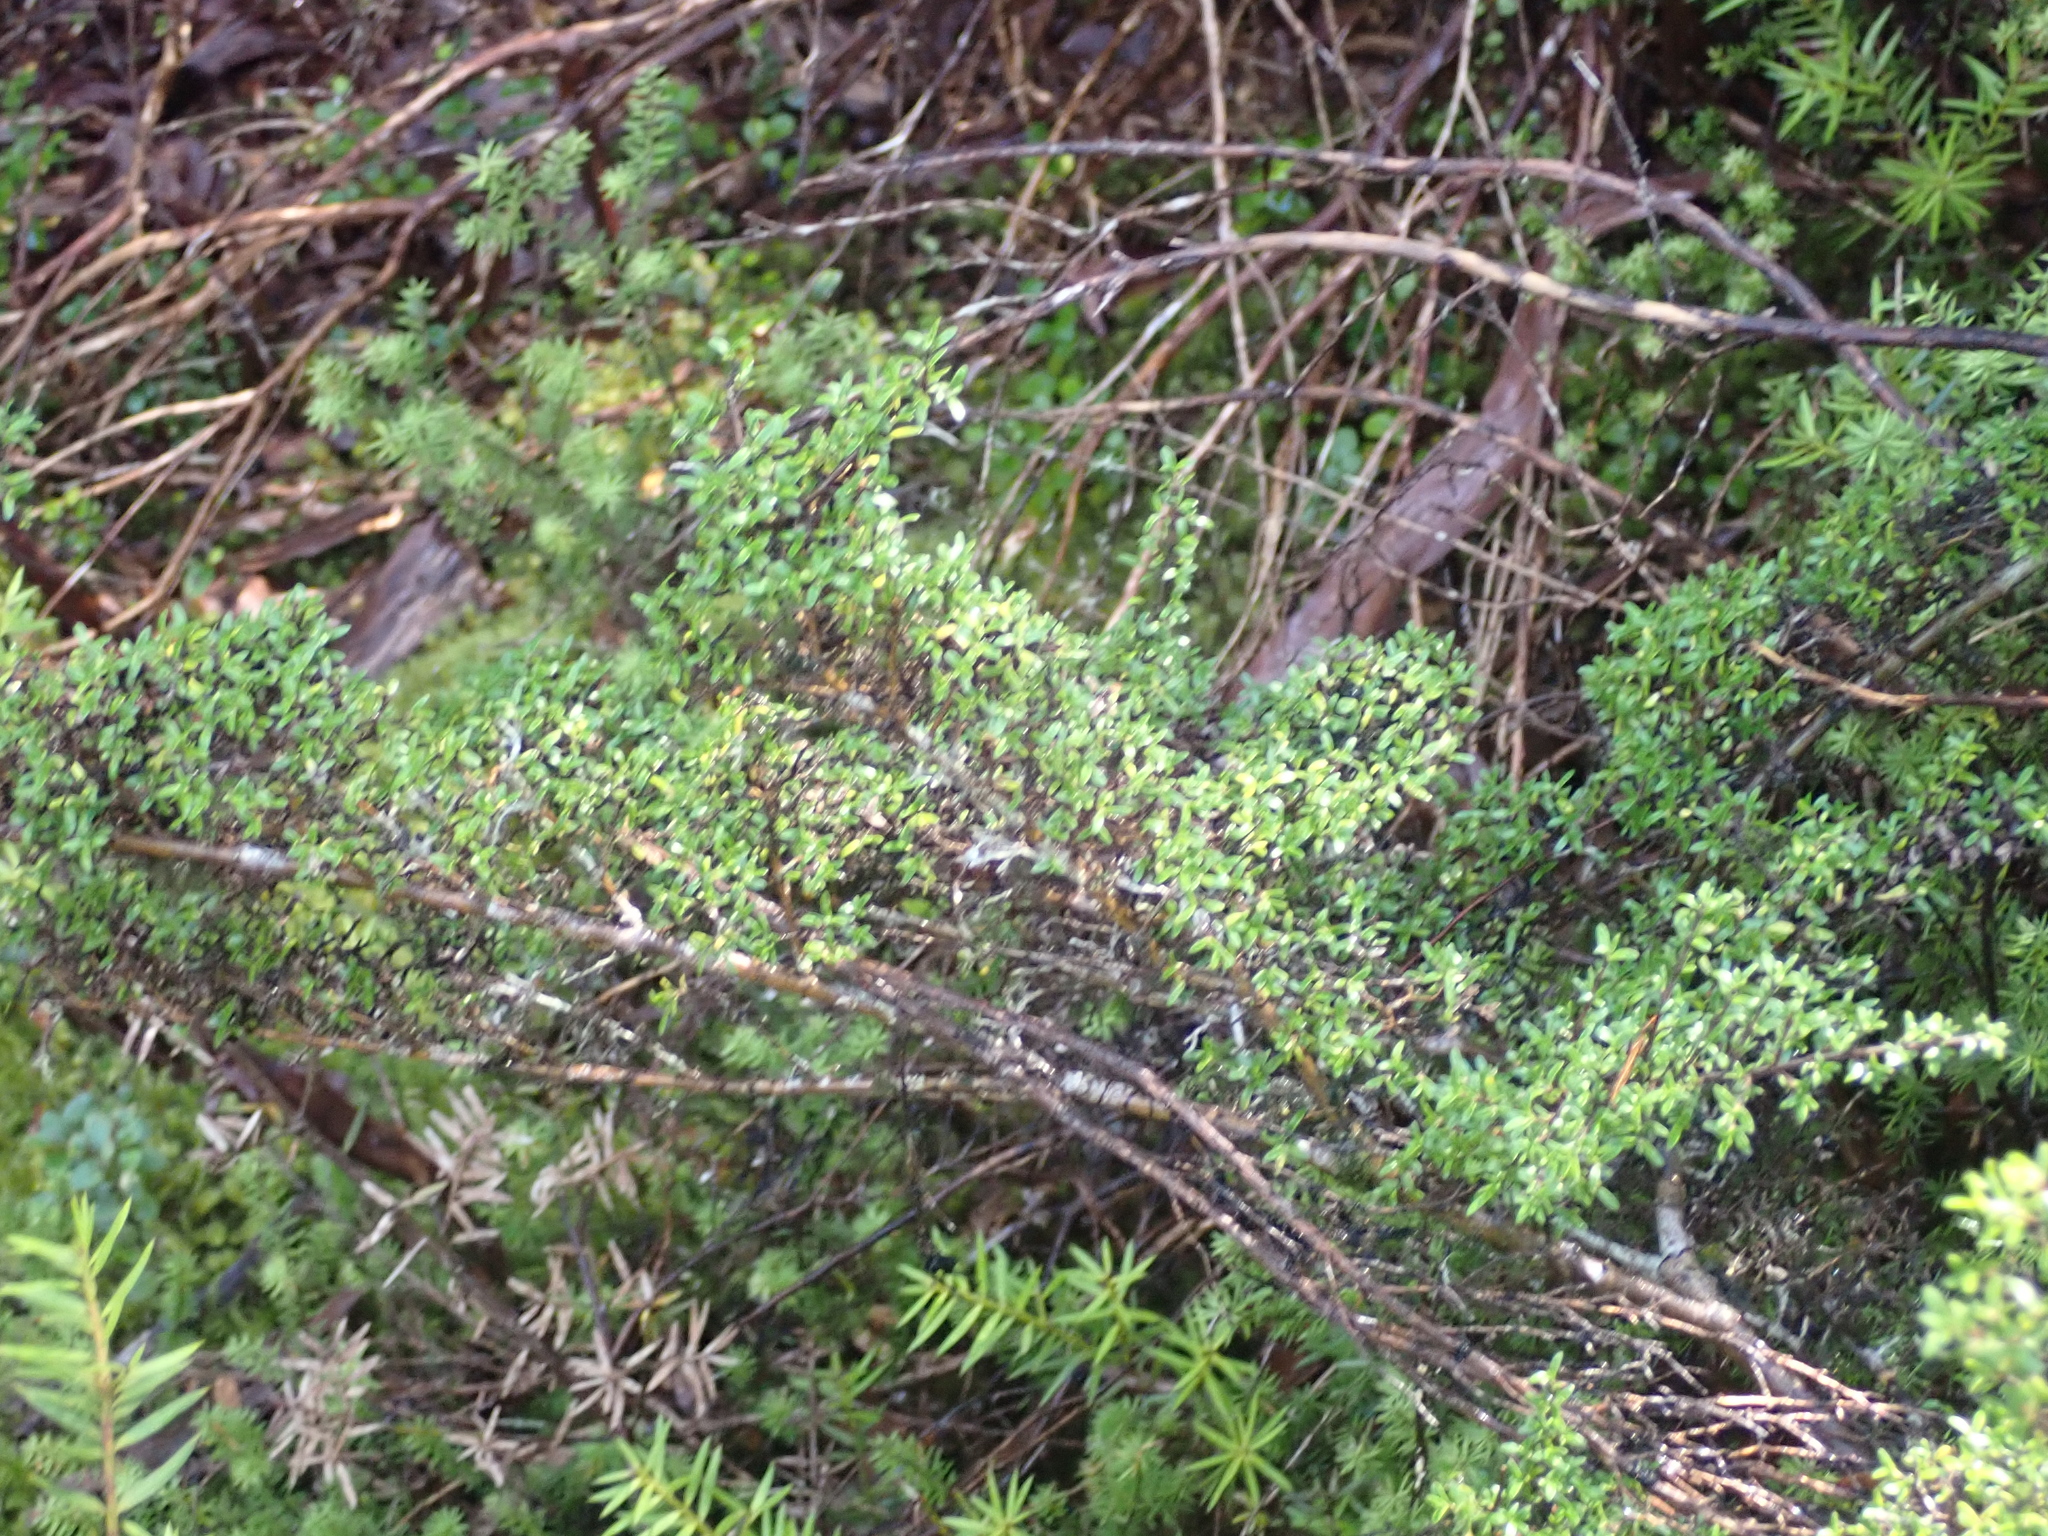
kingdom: Plantae
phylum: Tracheophyta
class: Magnoliopsida
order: Gentianales
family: Rubiaceae
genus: Coprosma
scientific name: Coprosma microcarpa
